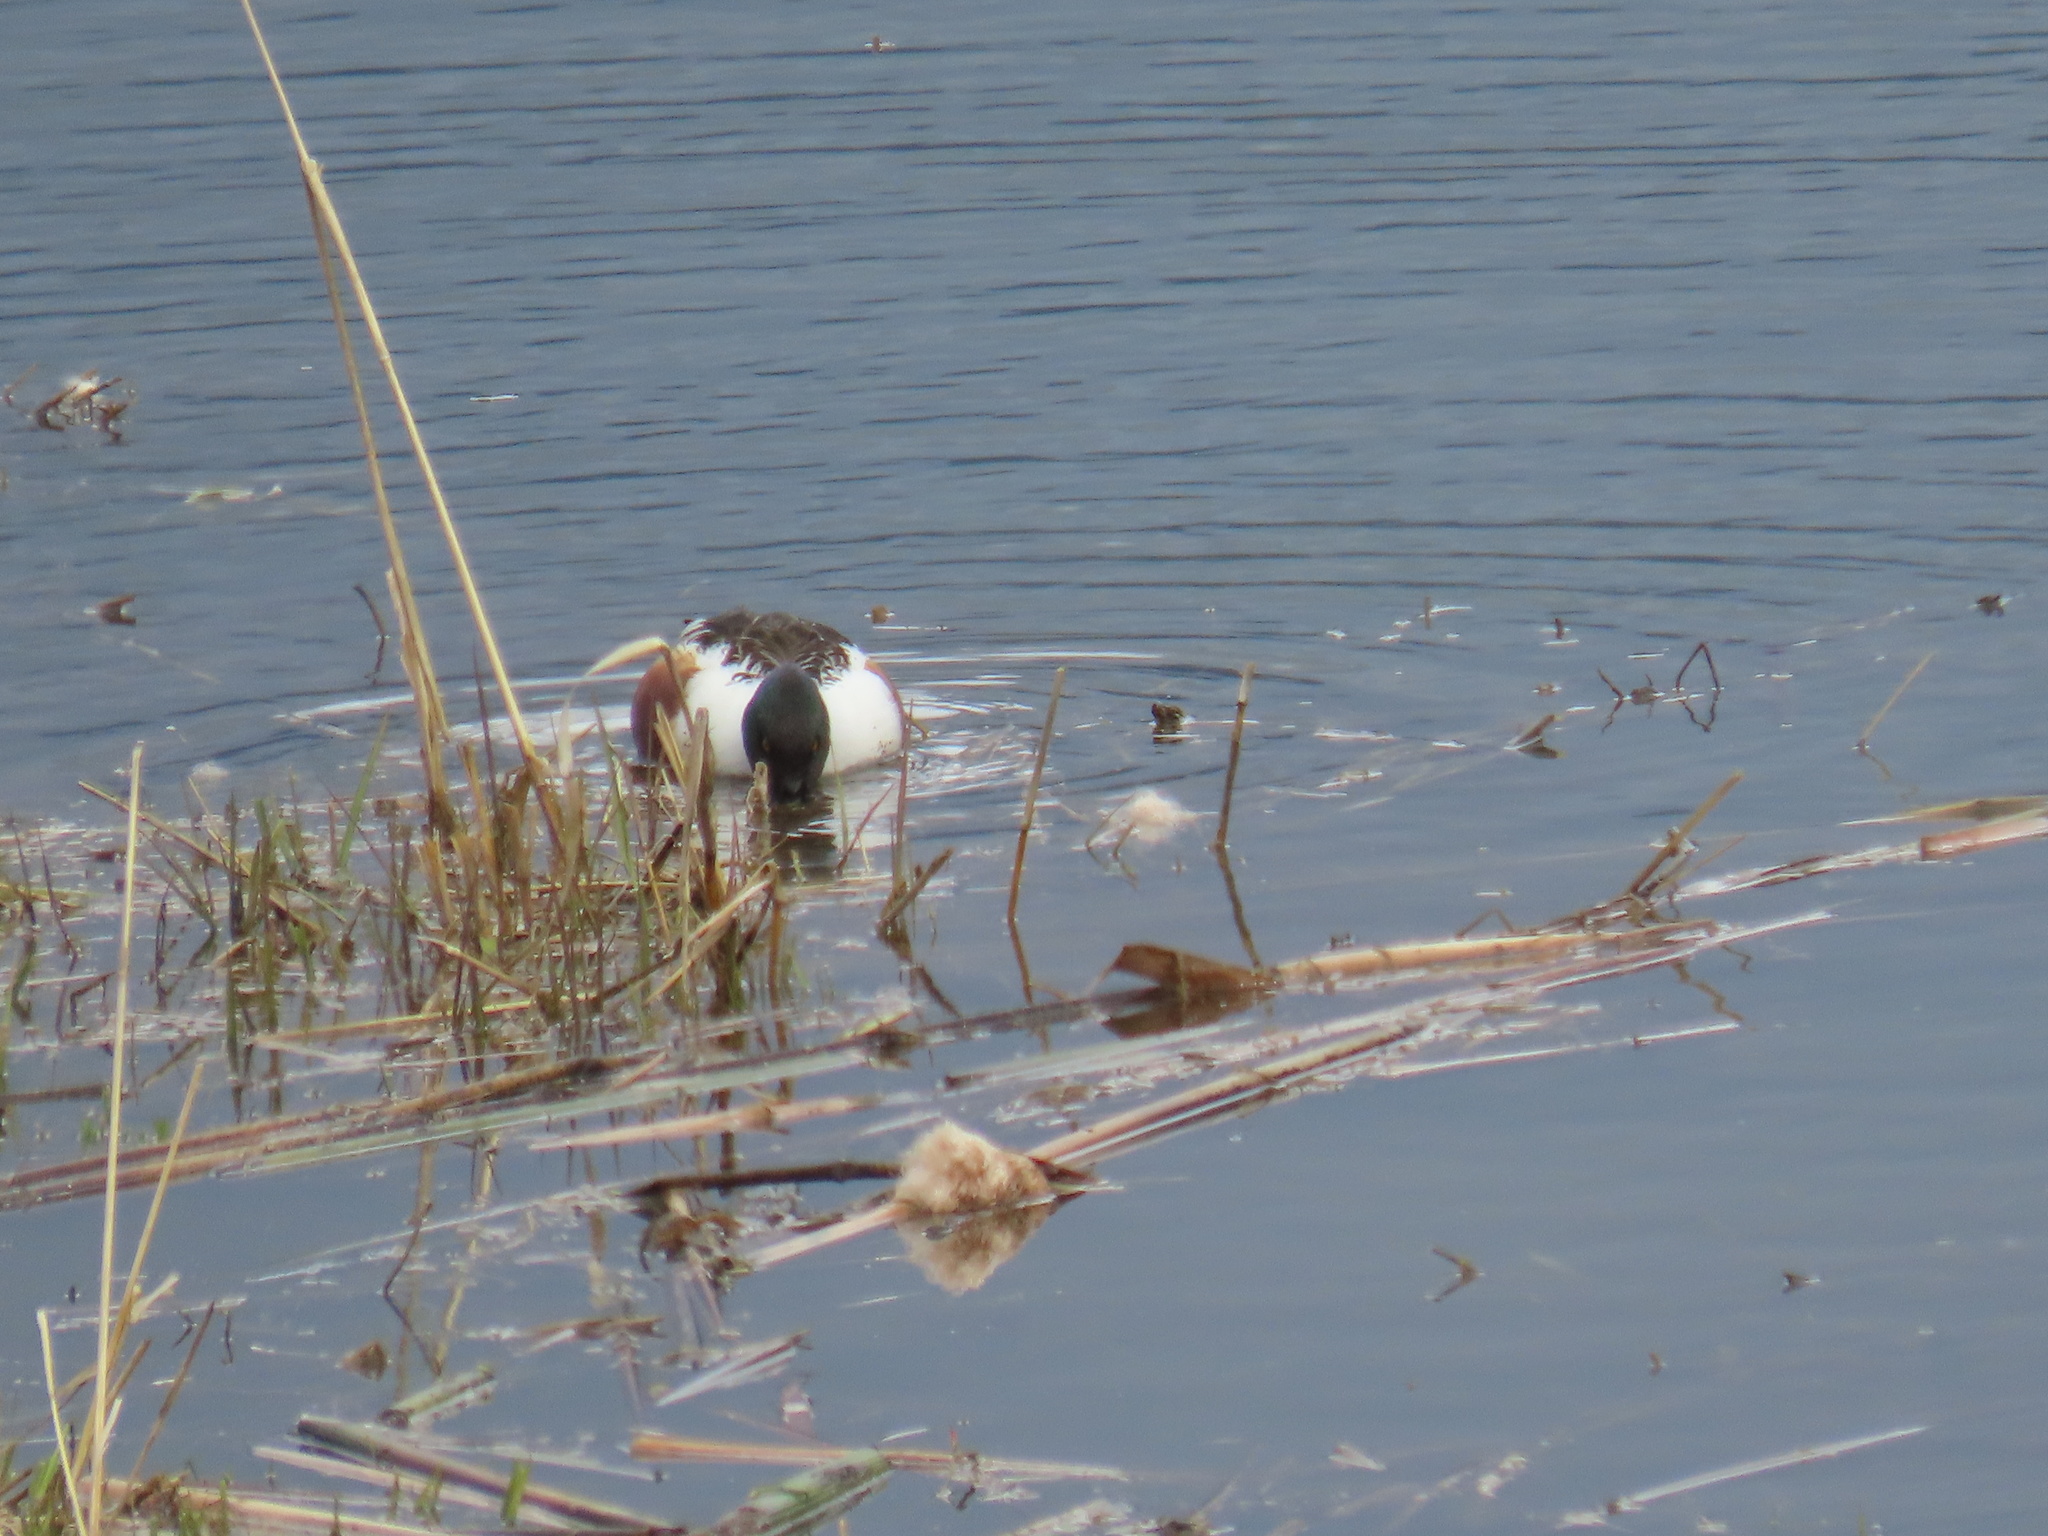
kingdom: Animalia
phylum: Chordata
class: Aves
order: Anseriformes
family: Anatidae
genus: Spatula
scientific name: Spatula clypeata
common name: Northern shoveler
